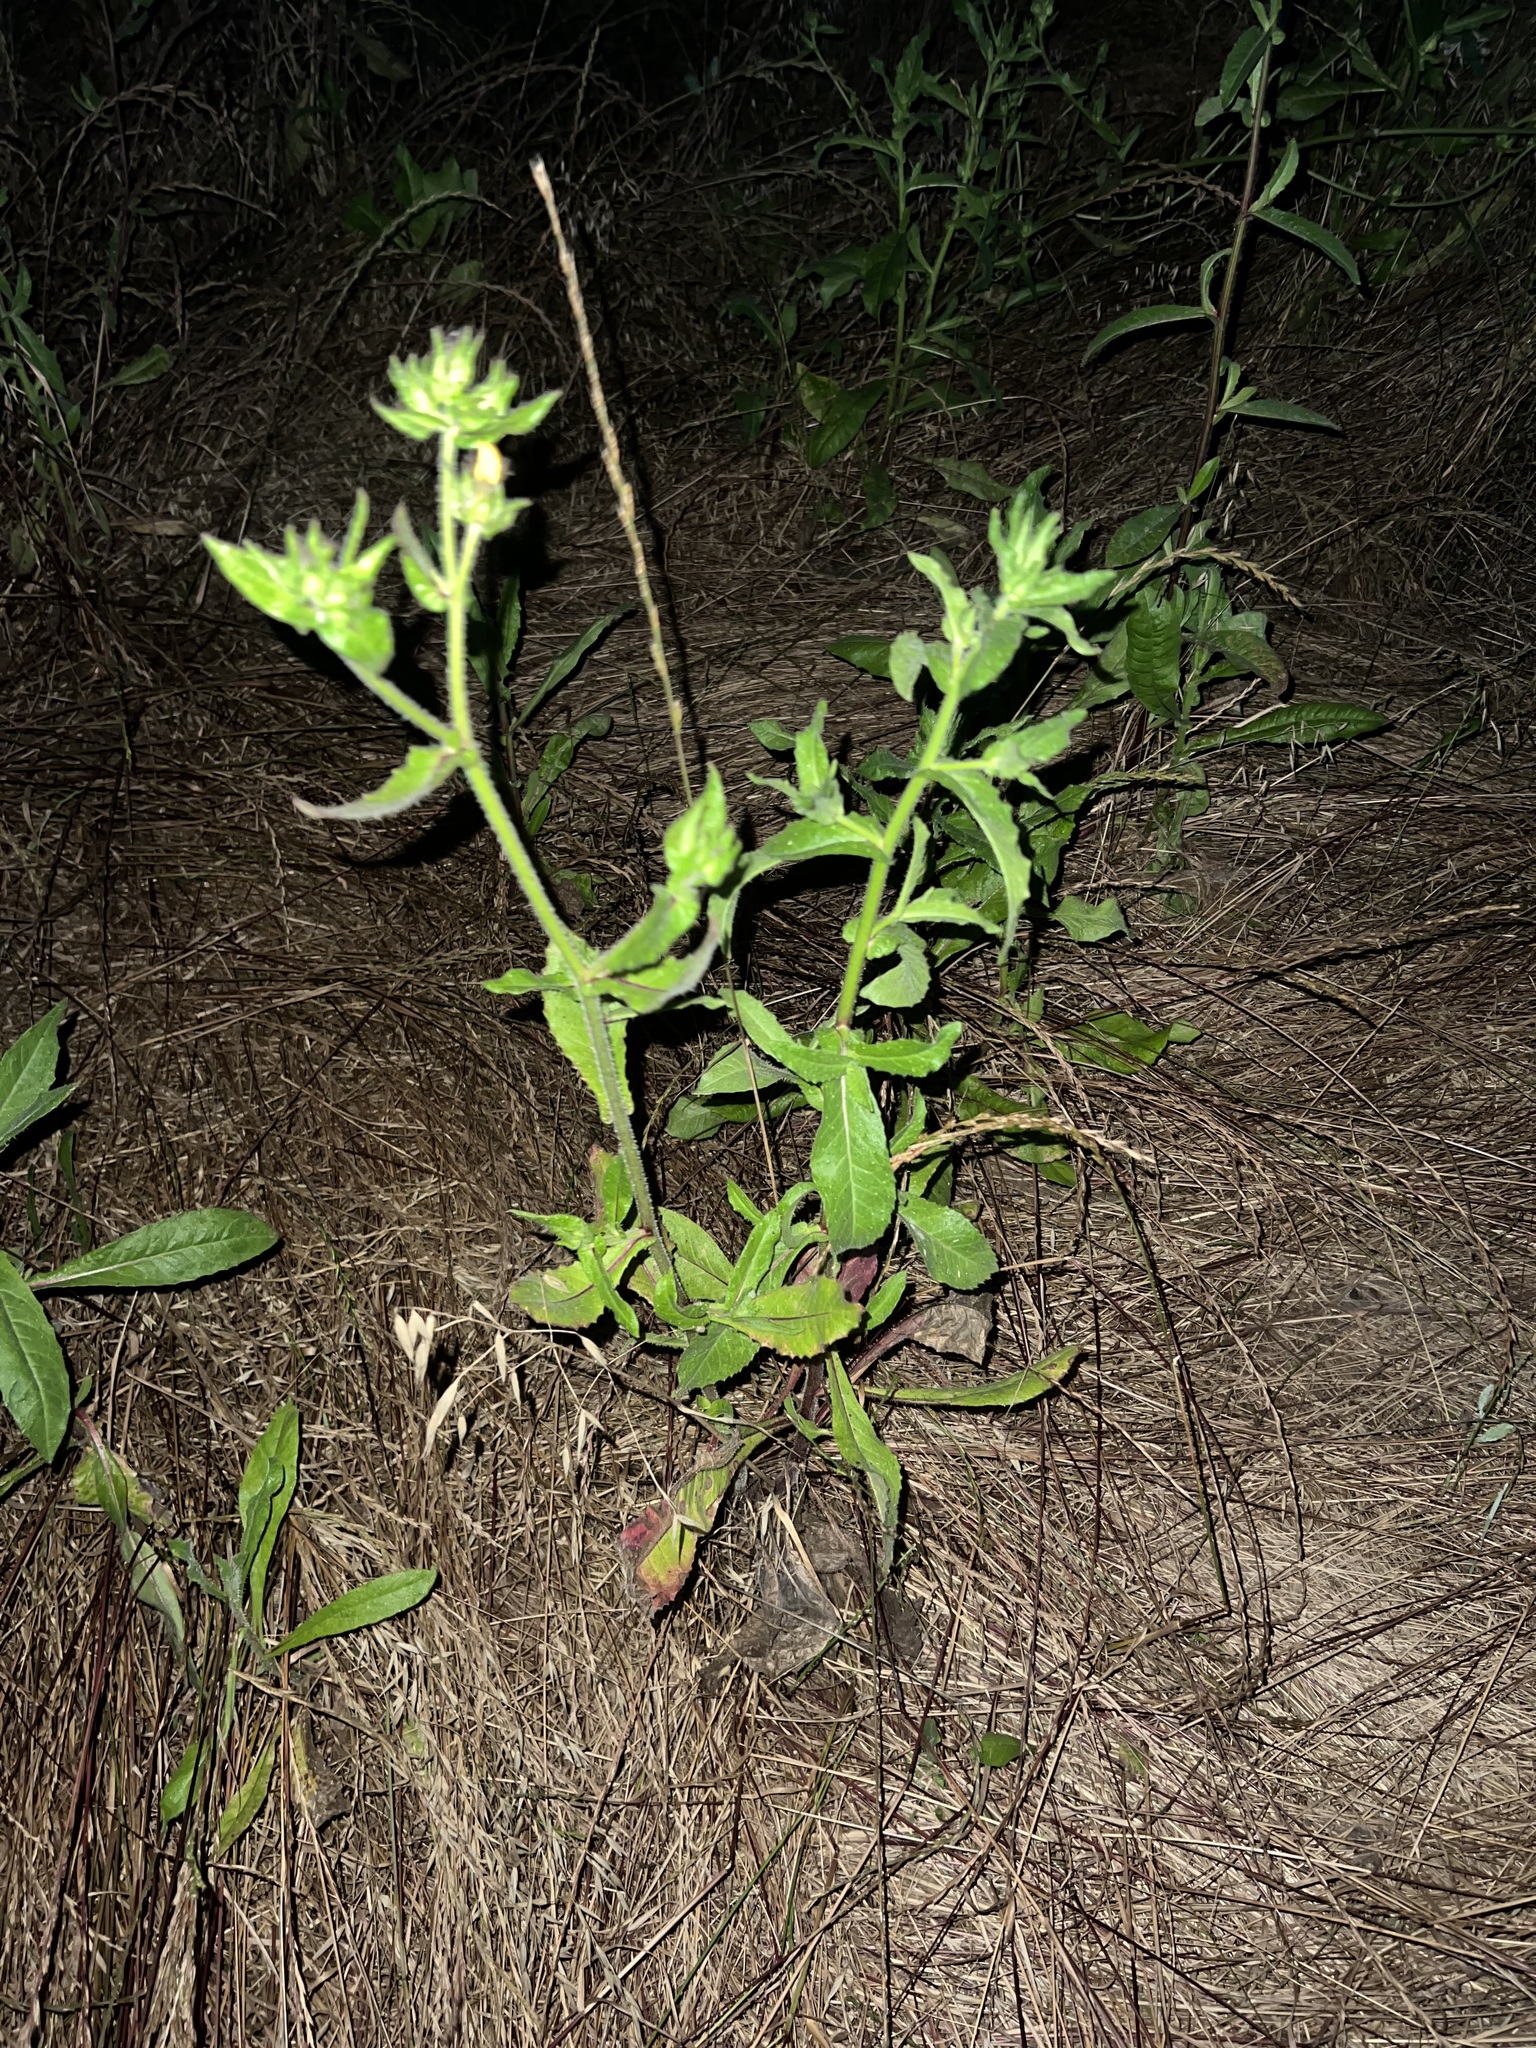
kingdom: Plantae
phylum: Tracheophyta
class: Magnoliopsida
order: Asterales
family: Asteraceae
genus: Helminthotheca
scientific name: Helminthotheca echioides
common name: Ox-tongue
